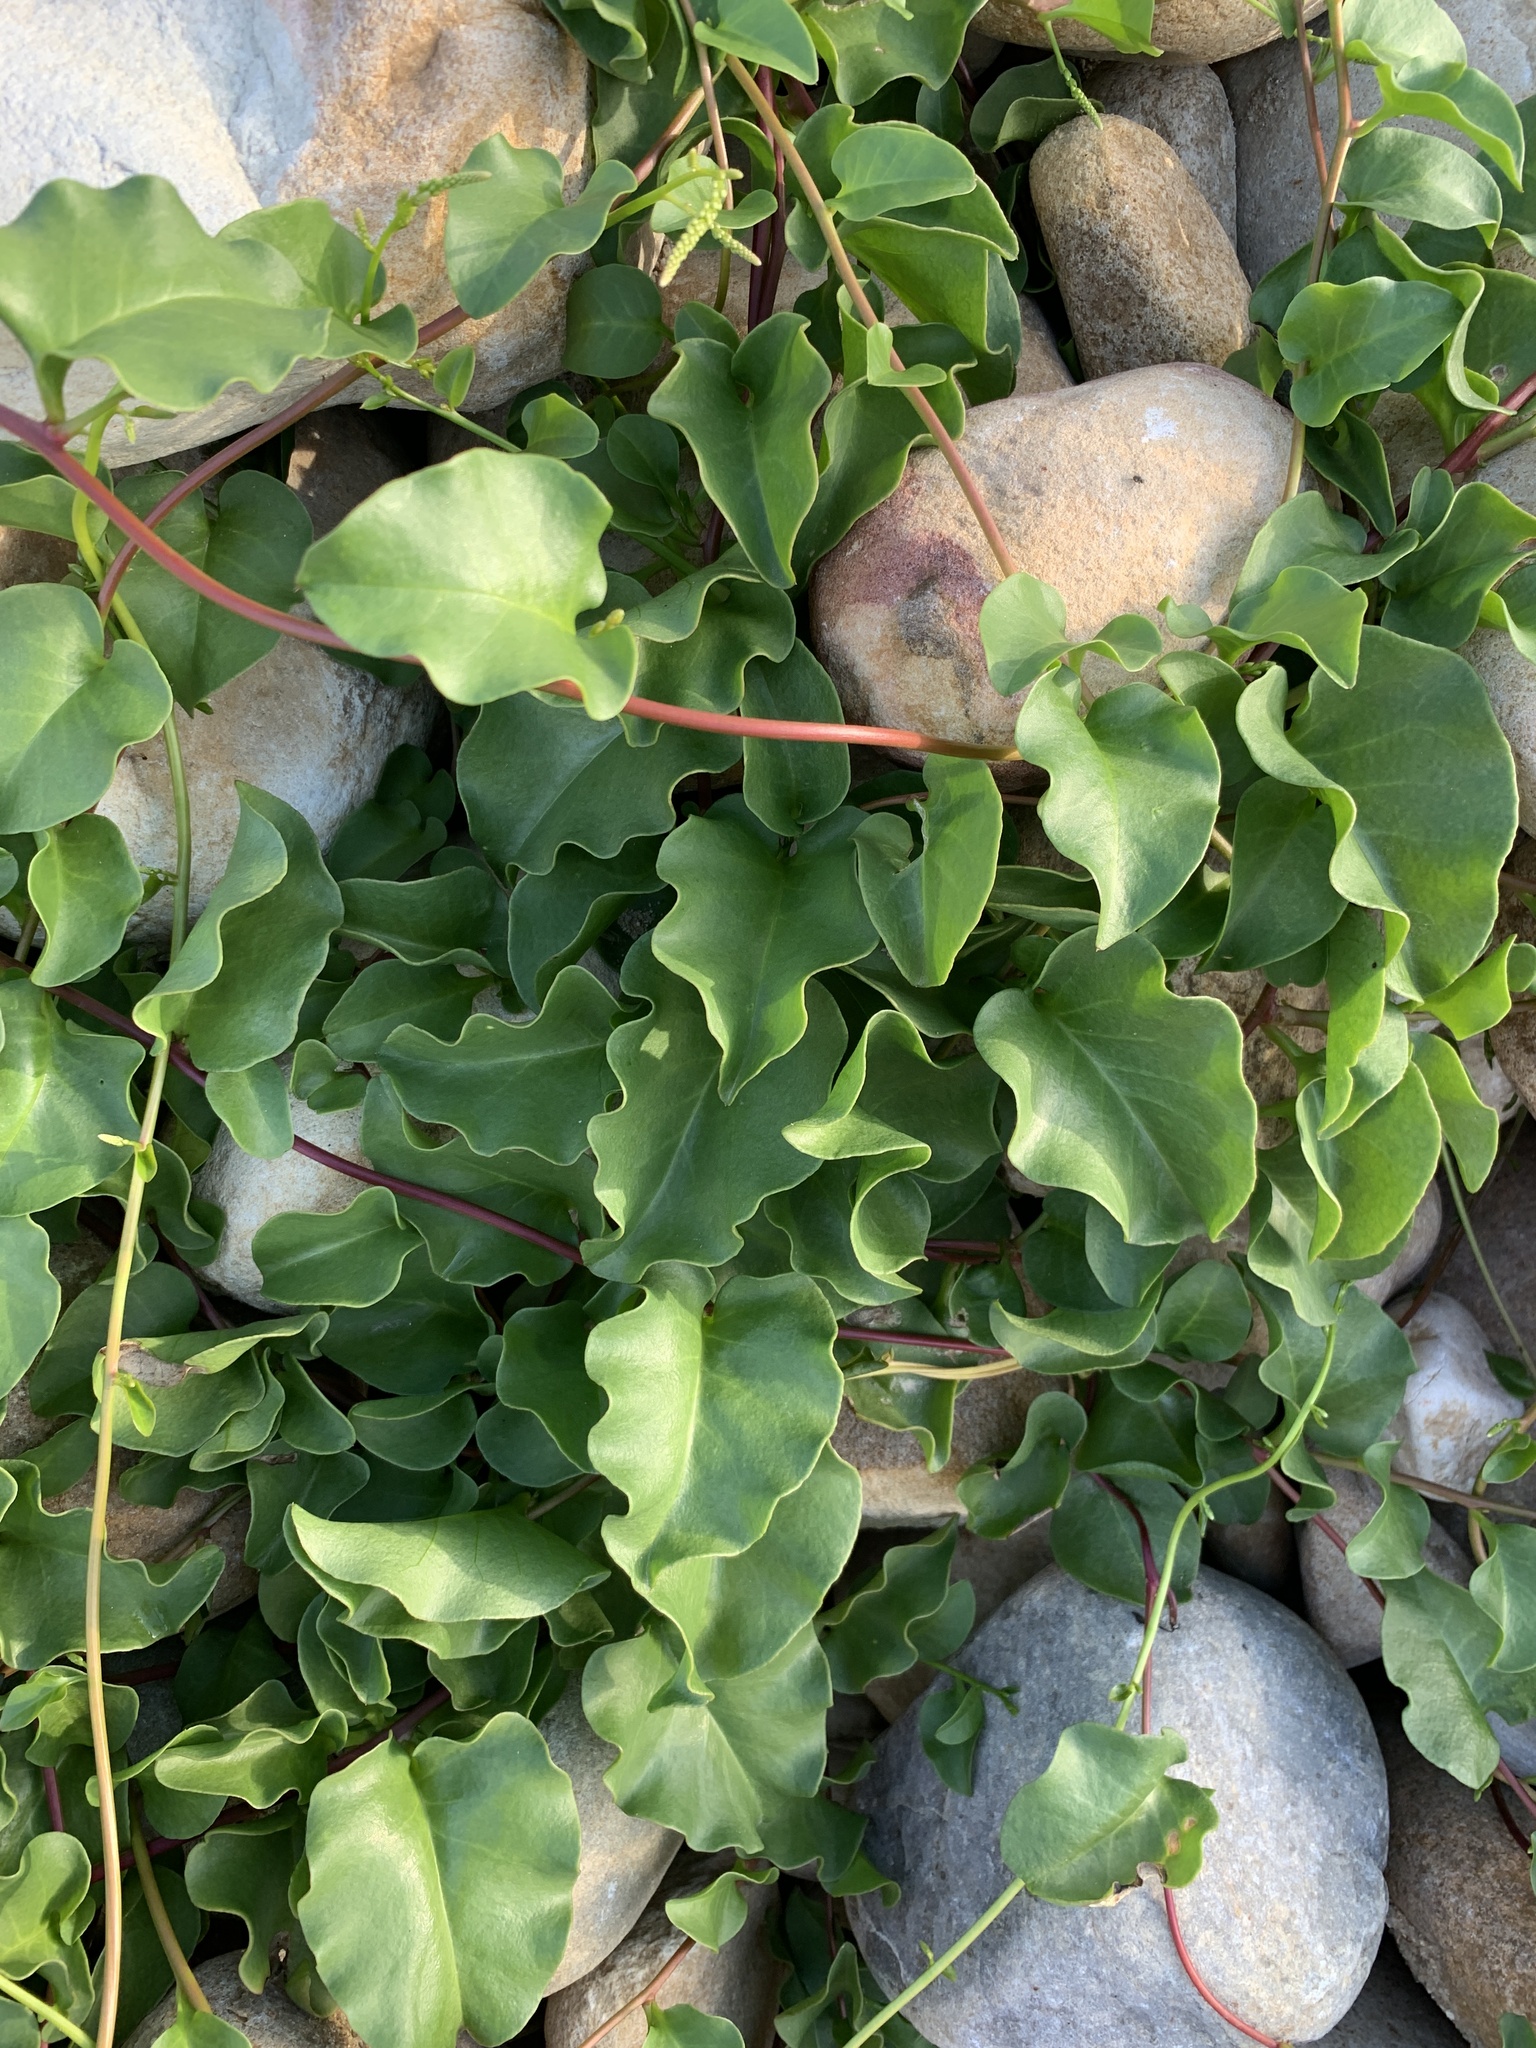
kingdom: Plantae
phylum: Tracheophyta
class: Magnoliopsida
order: Caryophyllales
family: Basellaceae
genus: Anredera
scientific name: Anredera cordifolia
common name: Heartleaf madeiravine
